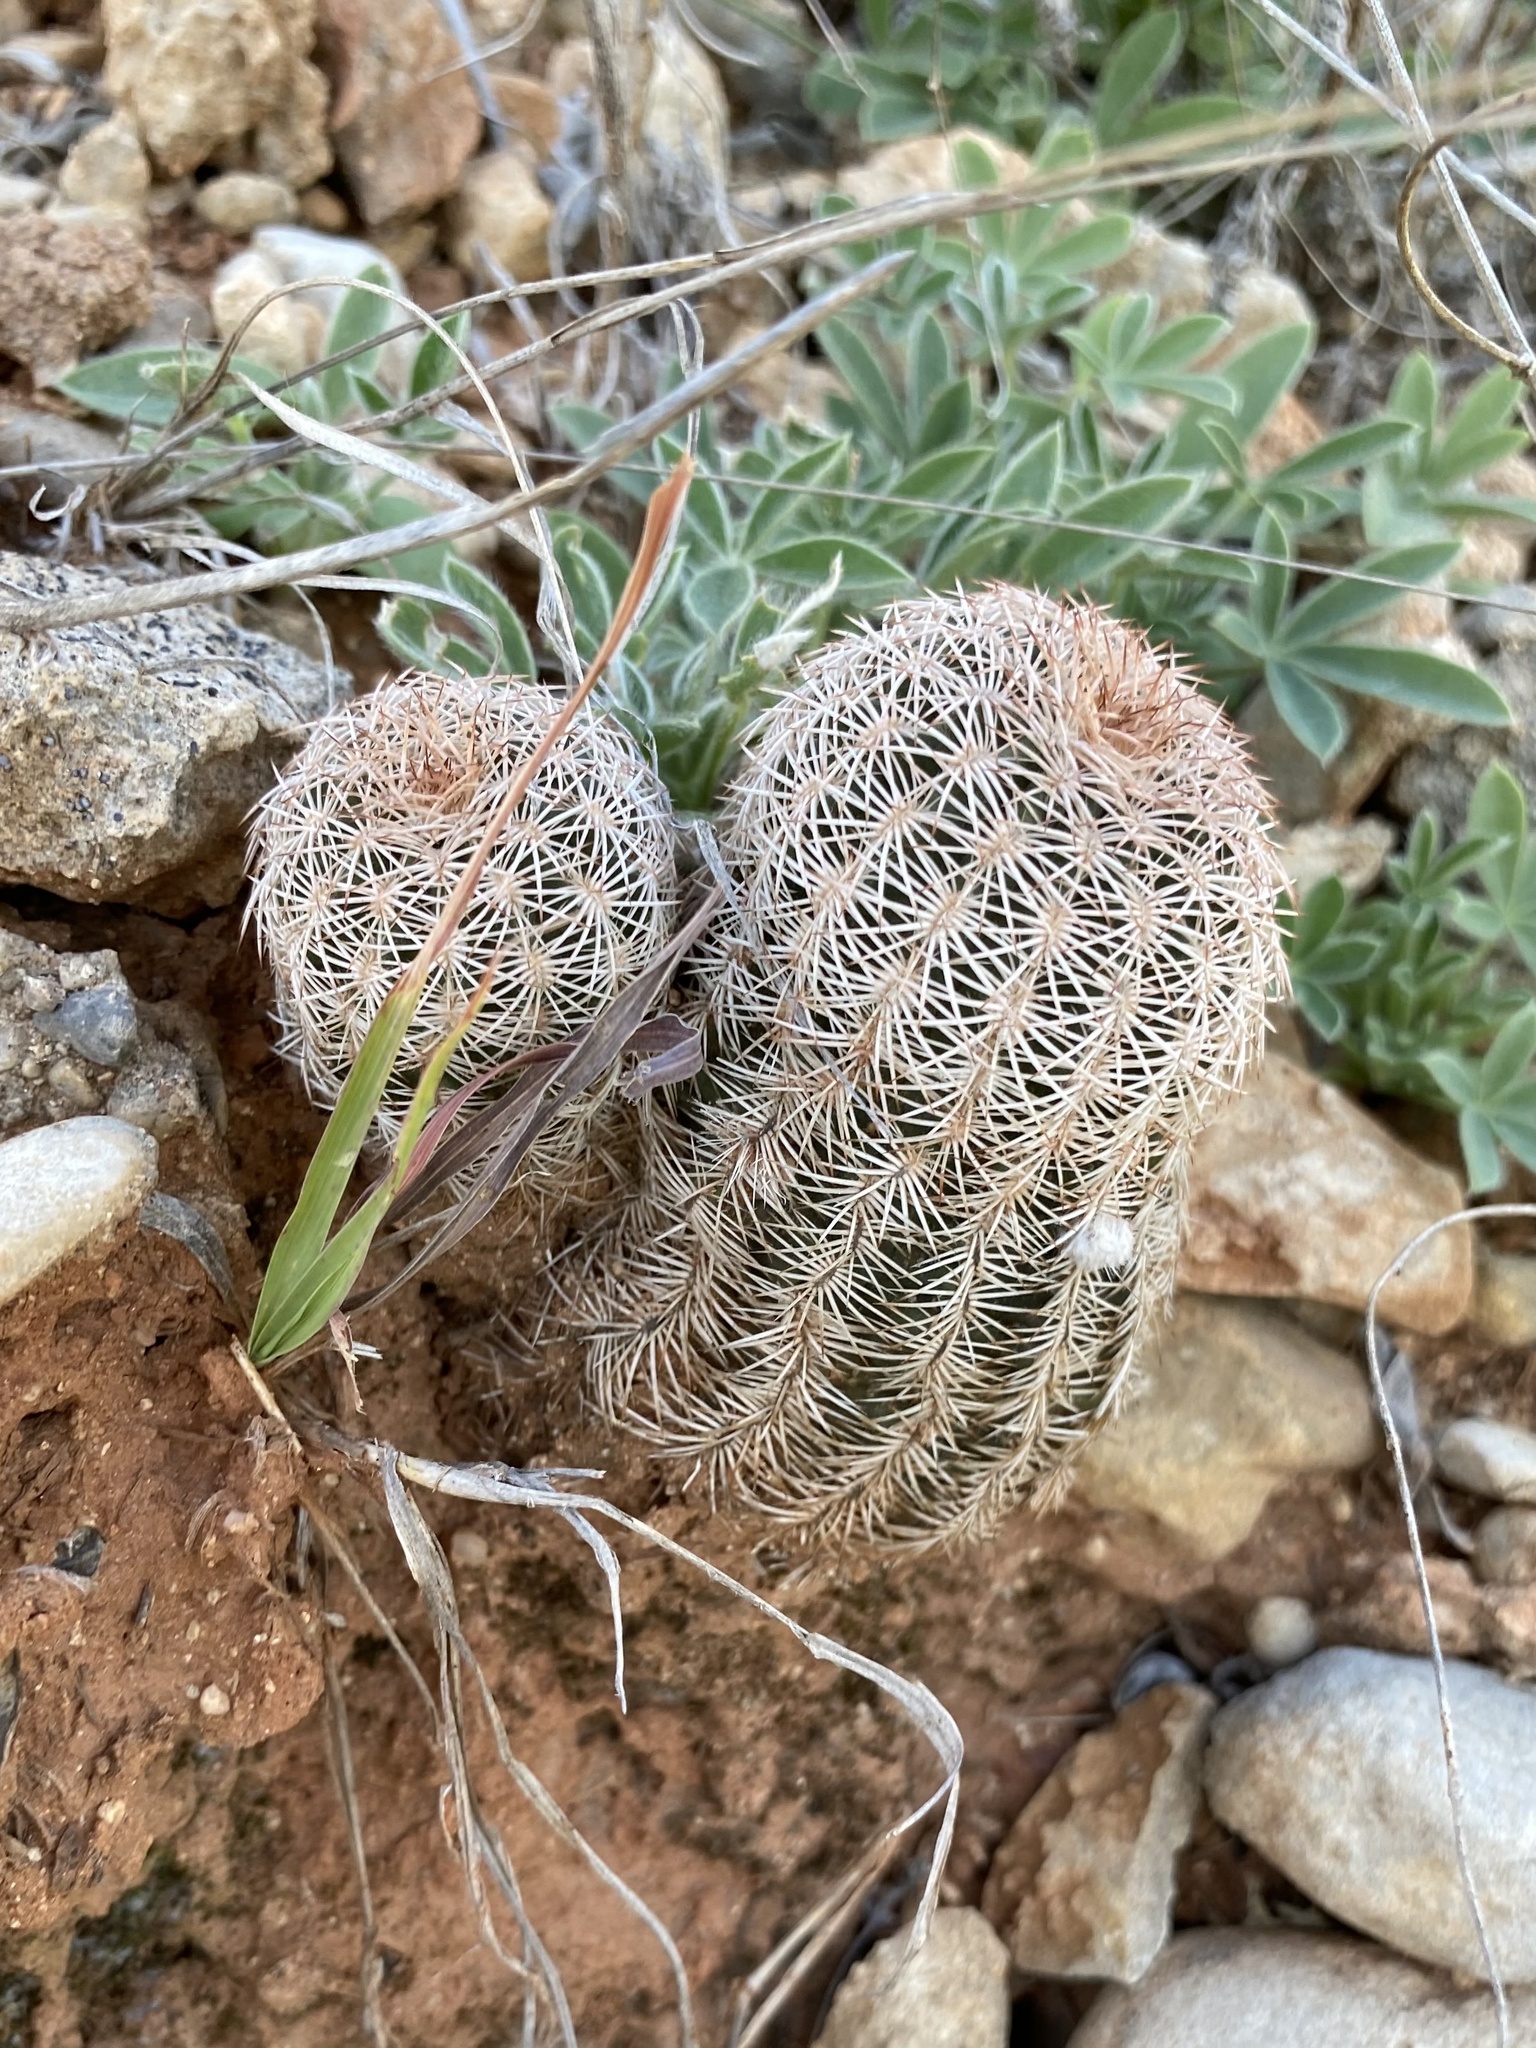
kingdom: Plantae
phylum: Tracheophyta
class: Magnoliopsida
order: Caryophyllales
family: Cactaceae
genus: Echinocereus
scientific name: Echinocereus reichenbachii
